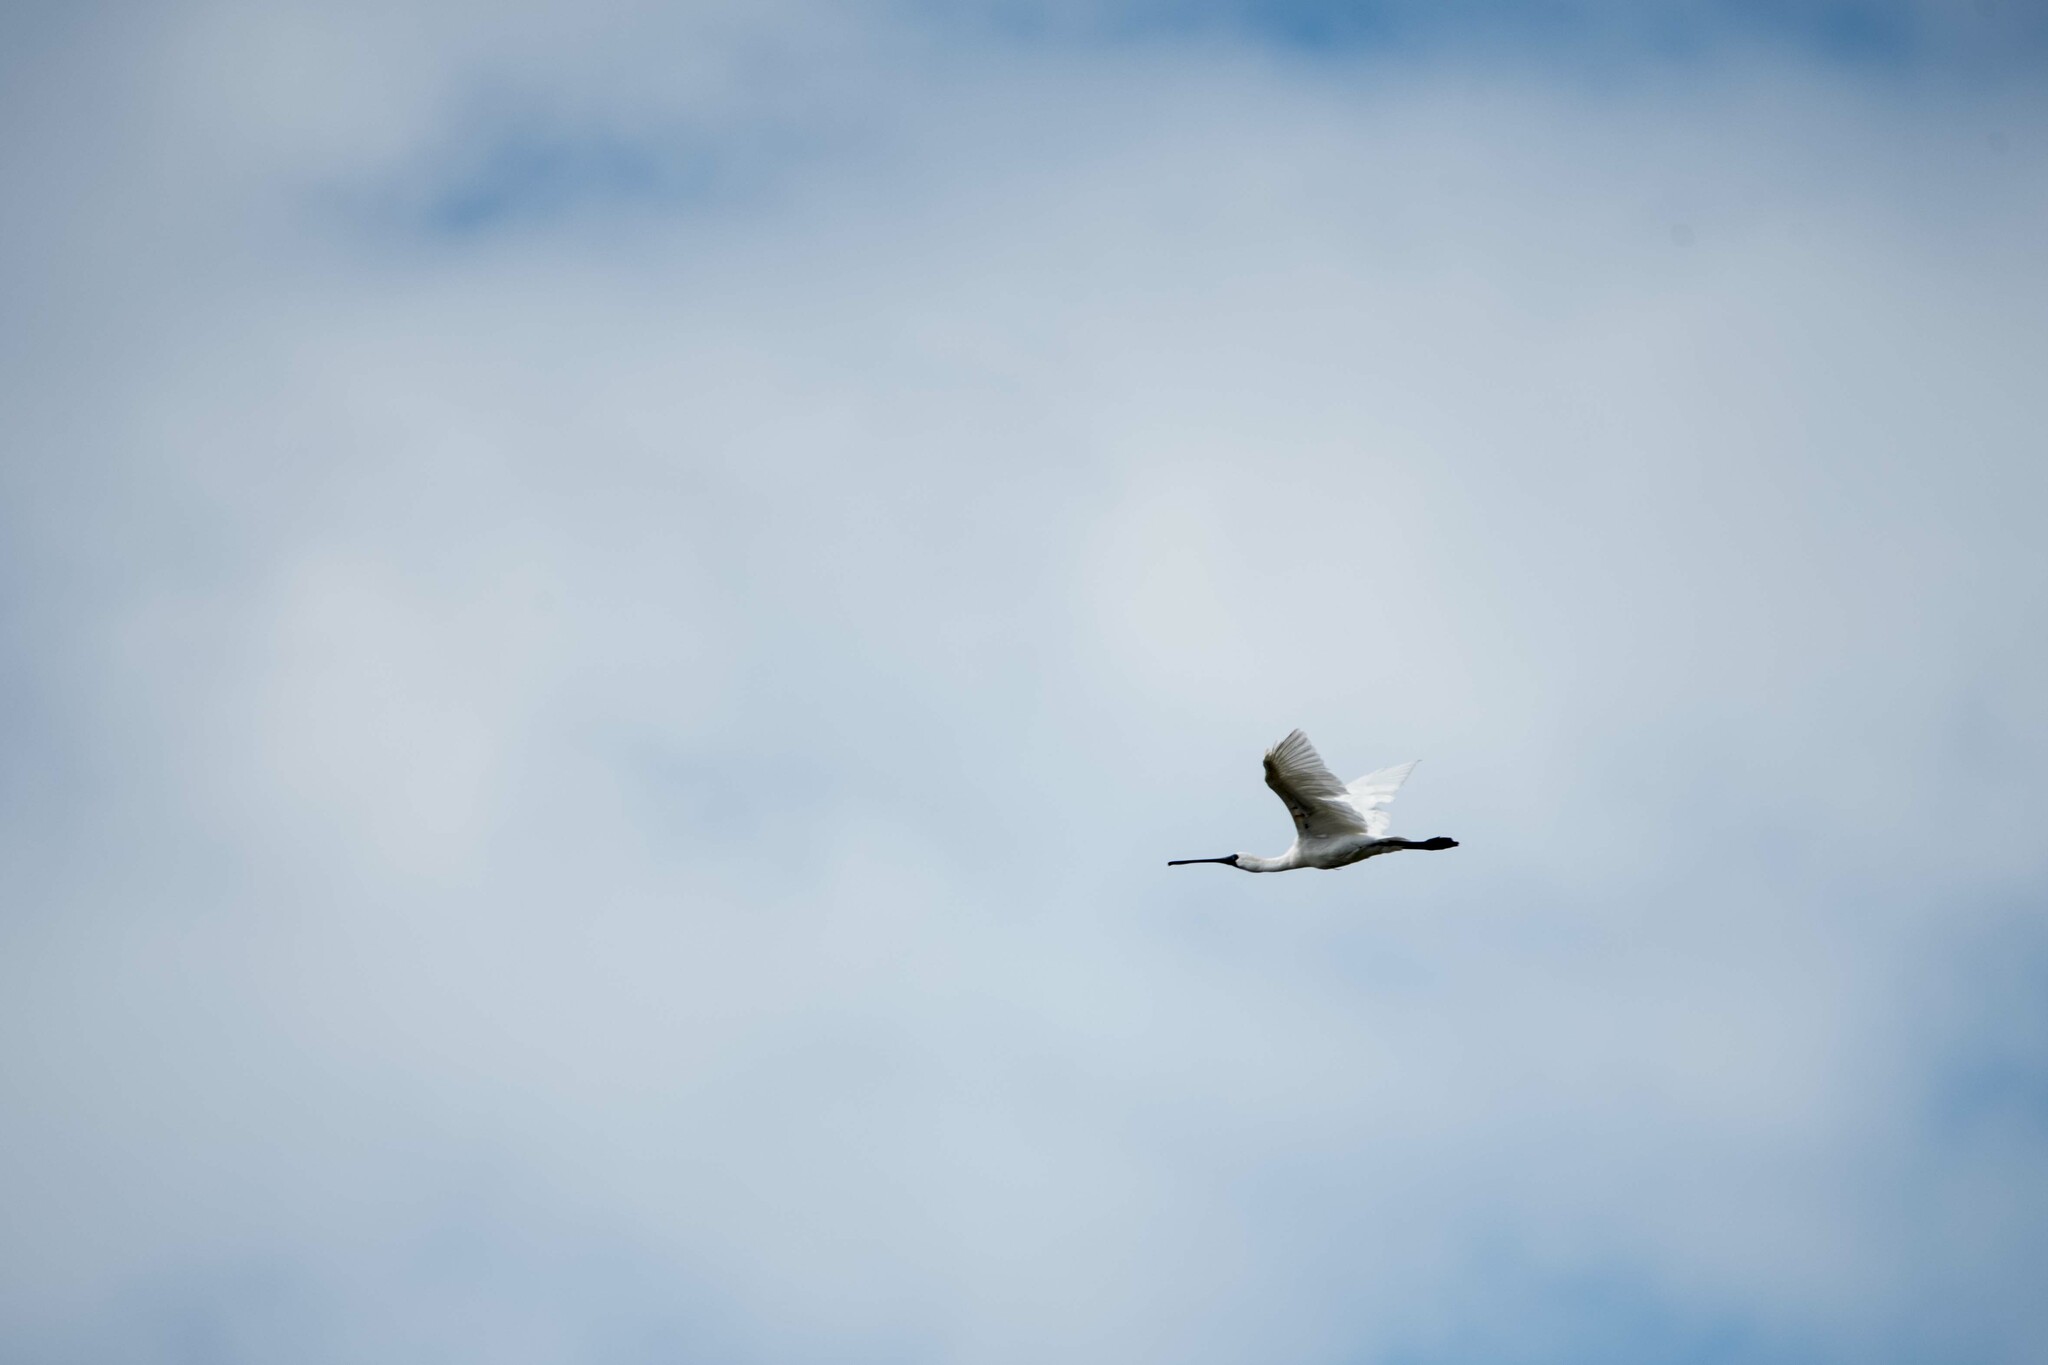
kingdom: Animalia
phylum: Chordata
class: Aves
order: Pelecaniformes
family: Threskiornithidae
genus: Platalea
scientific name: Platalea minor
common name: Black-faced spoonbill
